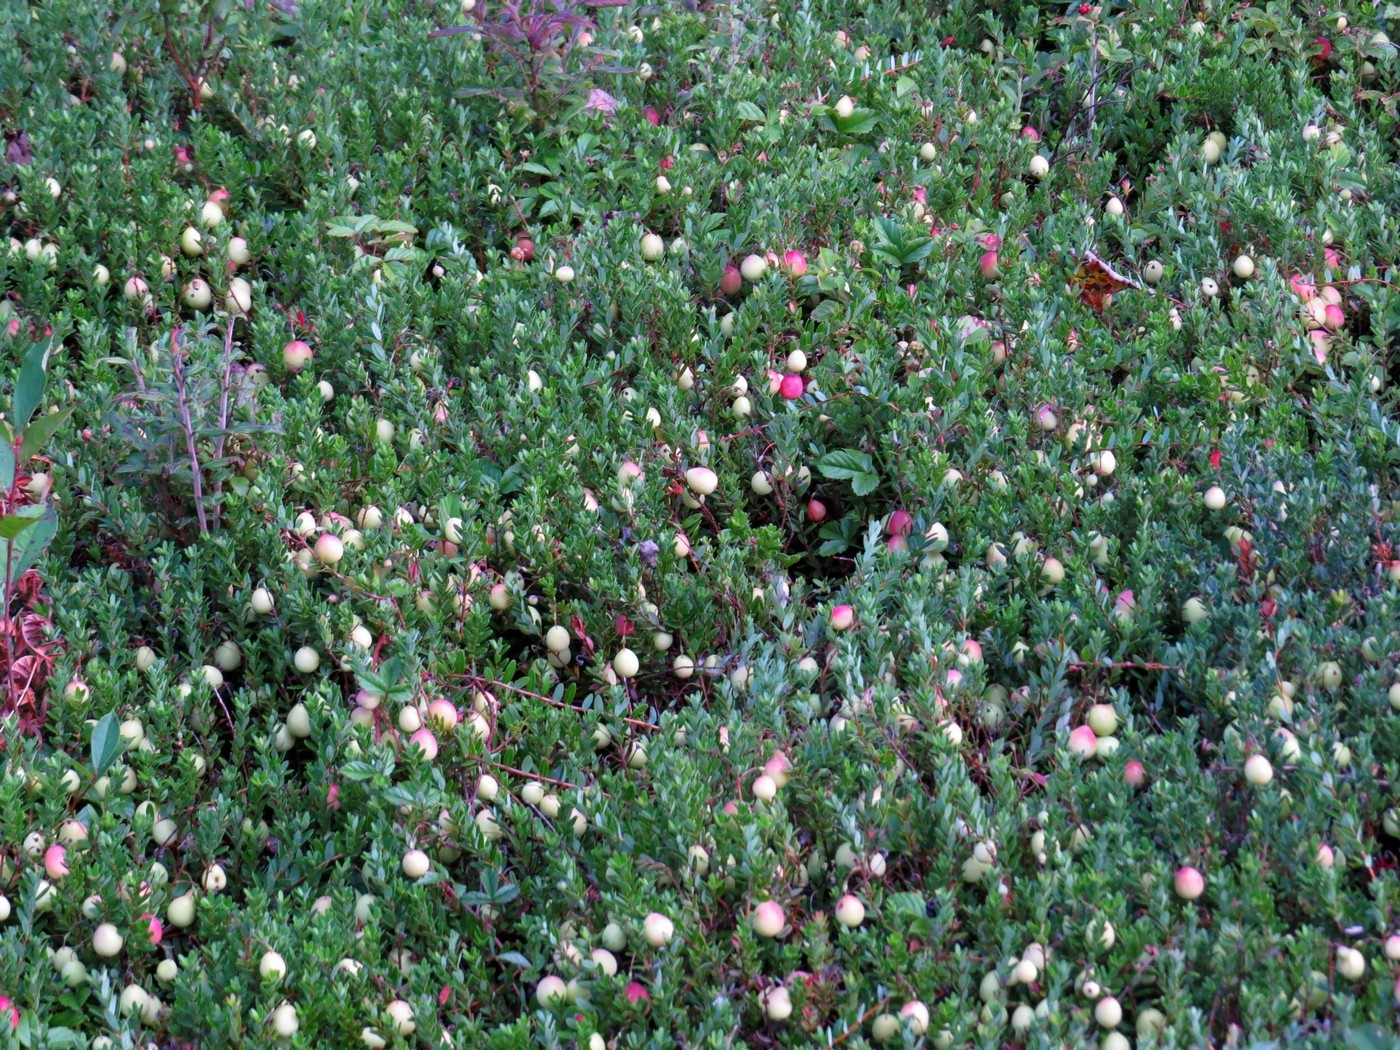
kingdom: Plantae
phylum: Tracheophyta
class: Magnoliopsida
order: Ericales
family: Ericaceae
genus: Vaccinium
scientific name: Vaccinium macrocarpon
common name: American cranberry
